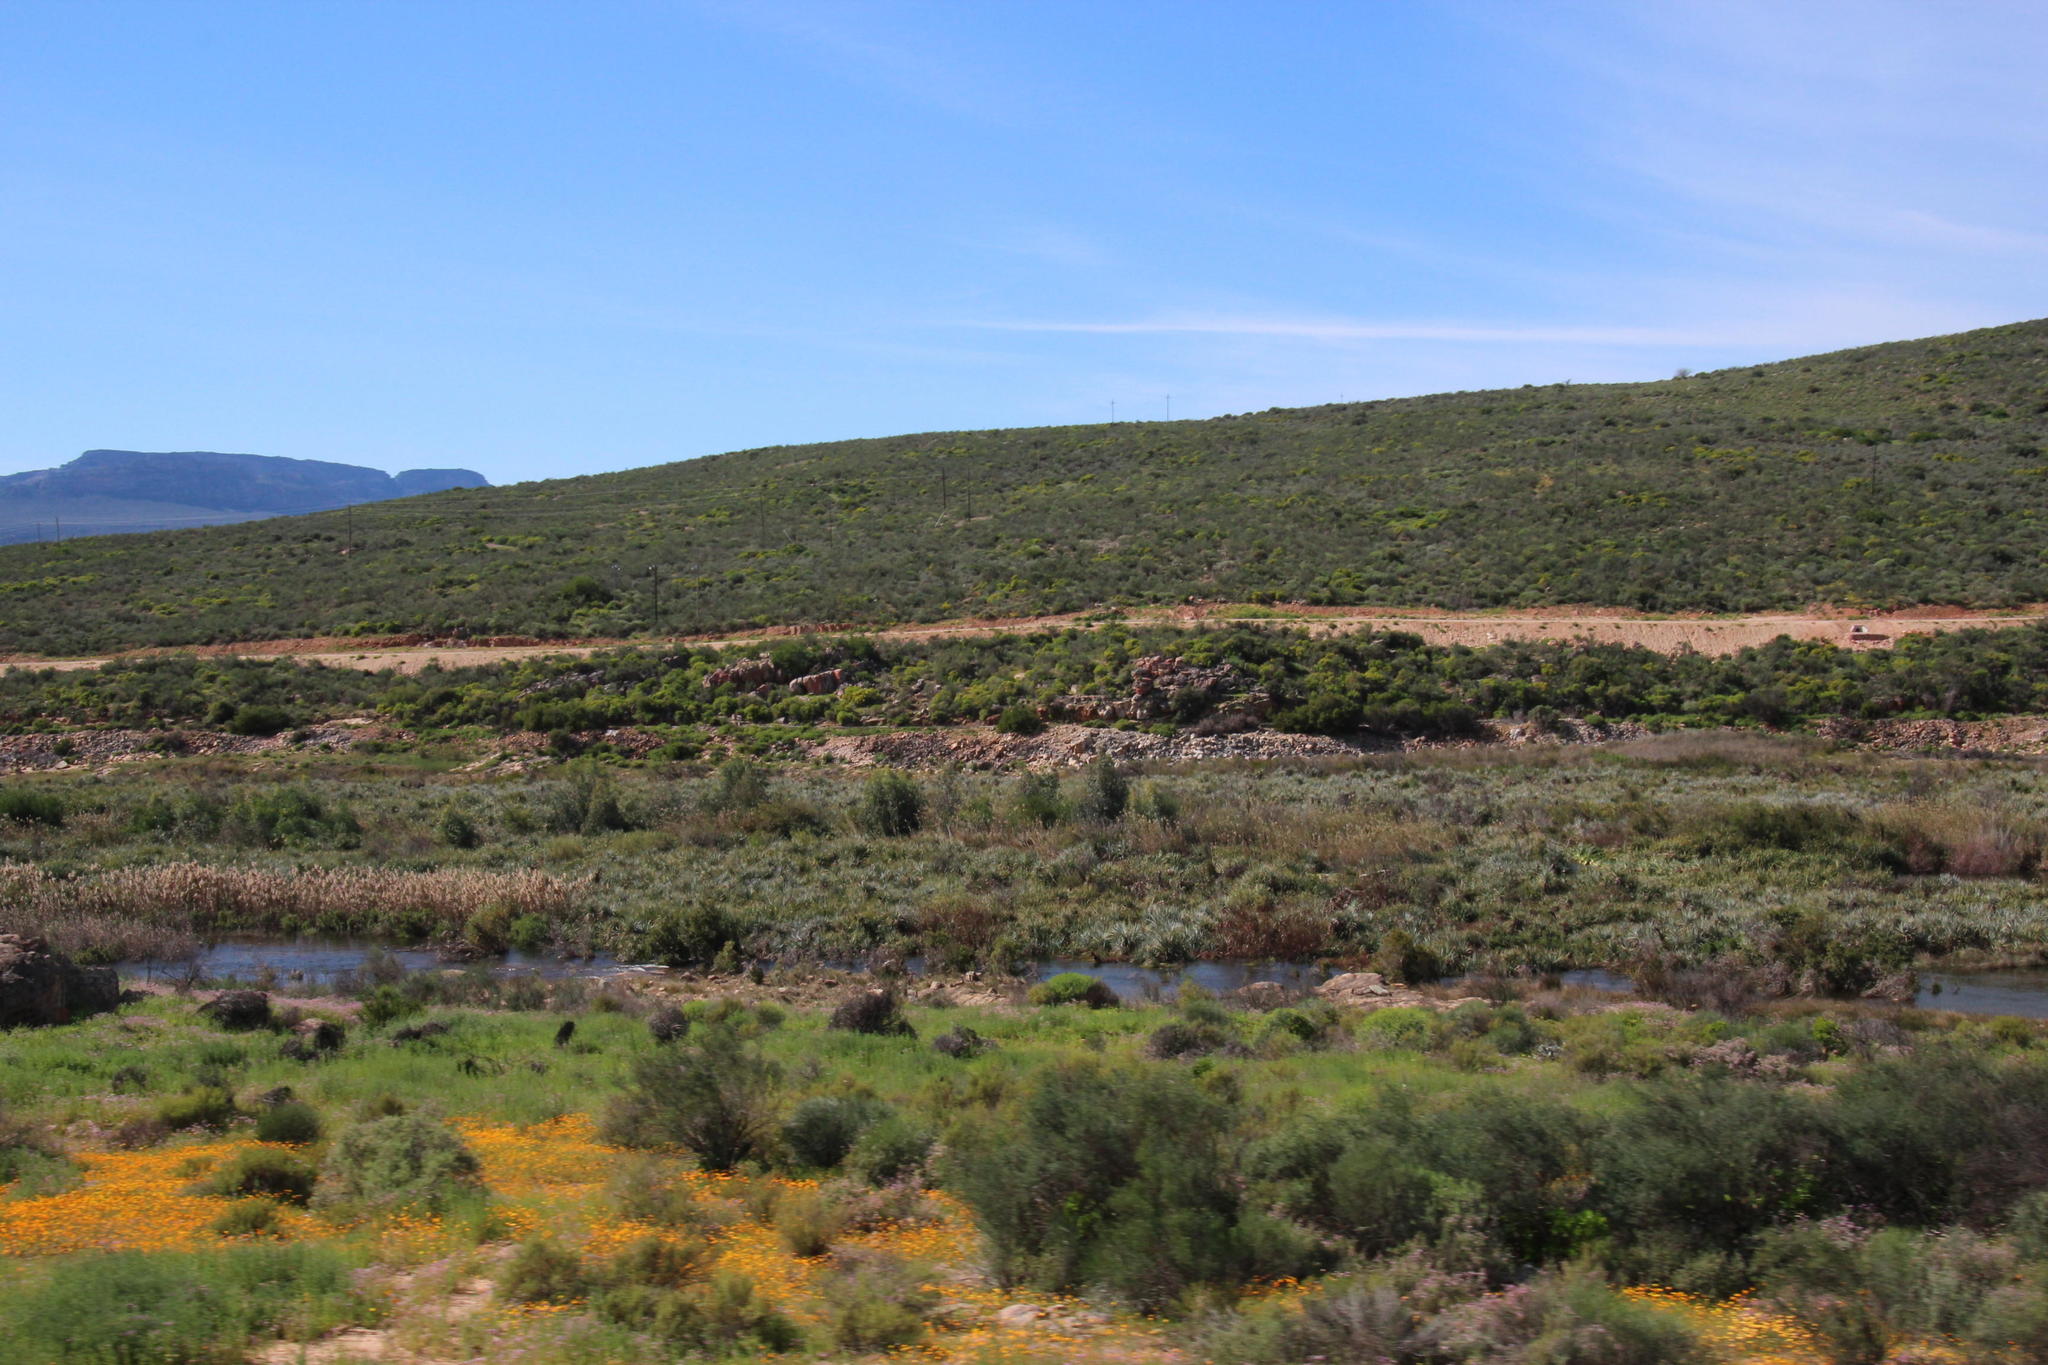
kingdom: Plantae
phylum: Tracheophyta
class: Liliopsida
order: Poales
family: Thurniaceae
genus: Prionium
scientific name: Prionium serratum
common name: Palmiet
